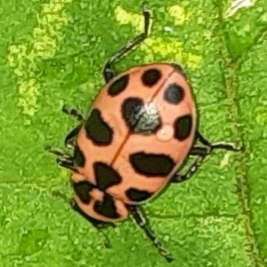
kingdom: Animalia
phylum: Arthropoda
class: Insecta
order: Coleoptera
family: Coccinellidae
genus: Coleomegilla
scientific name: Coleomegilla maculata
